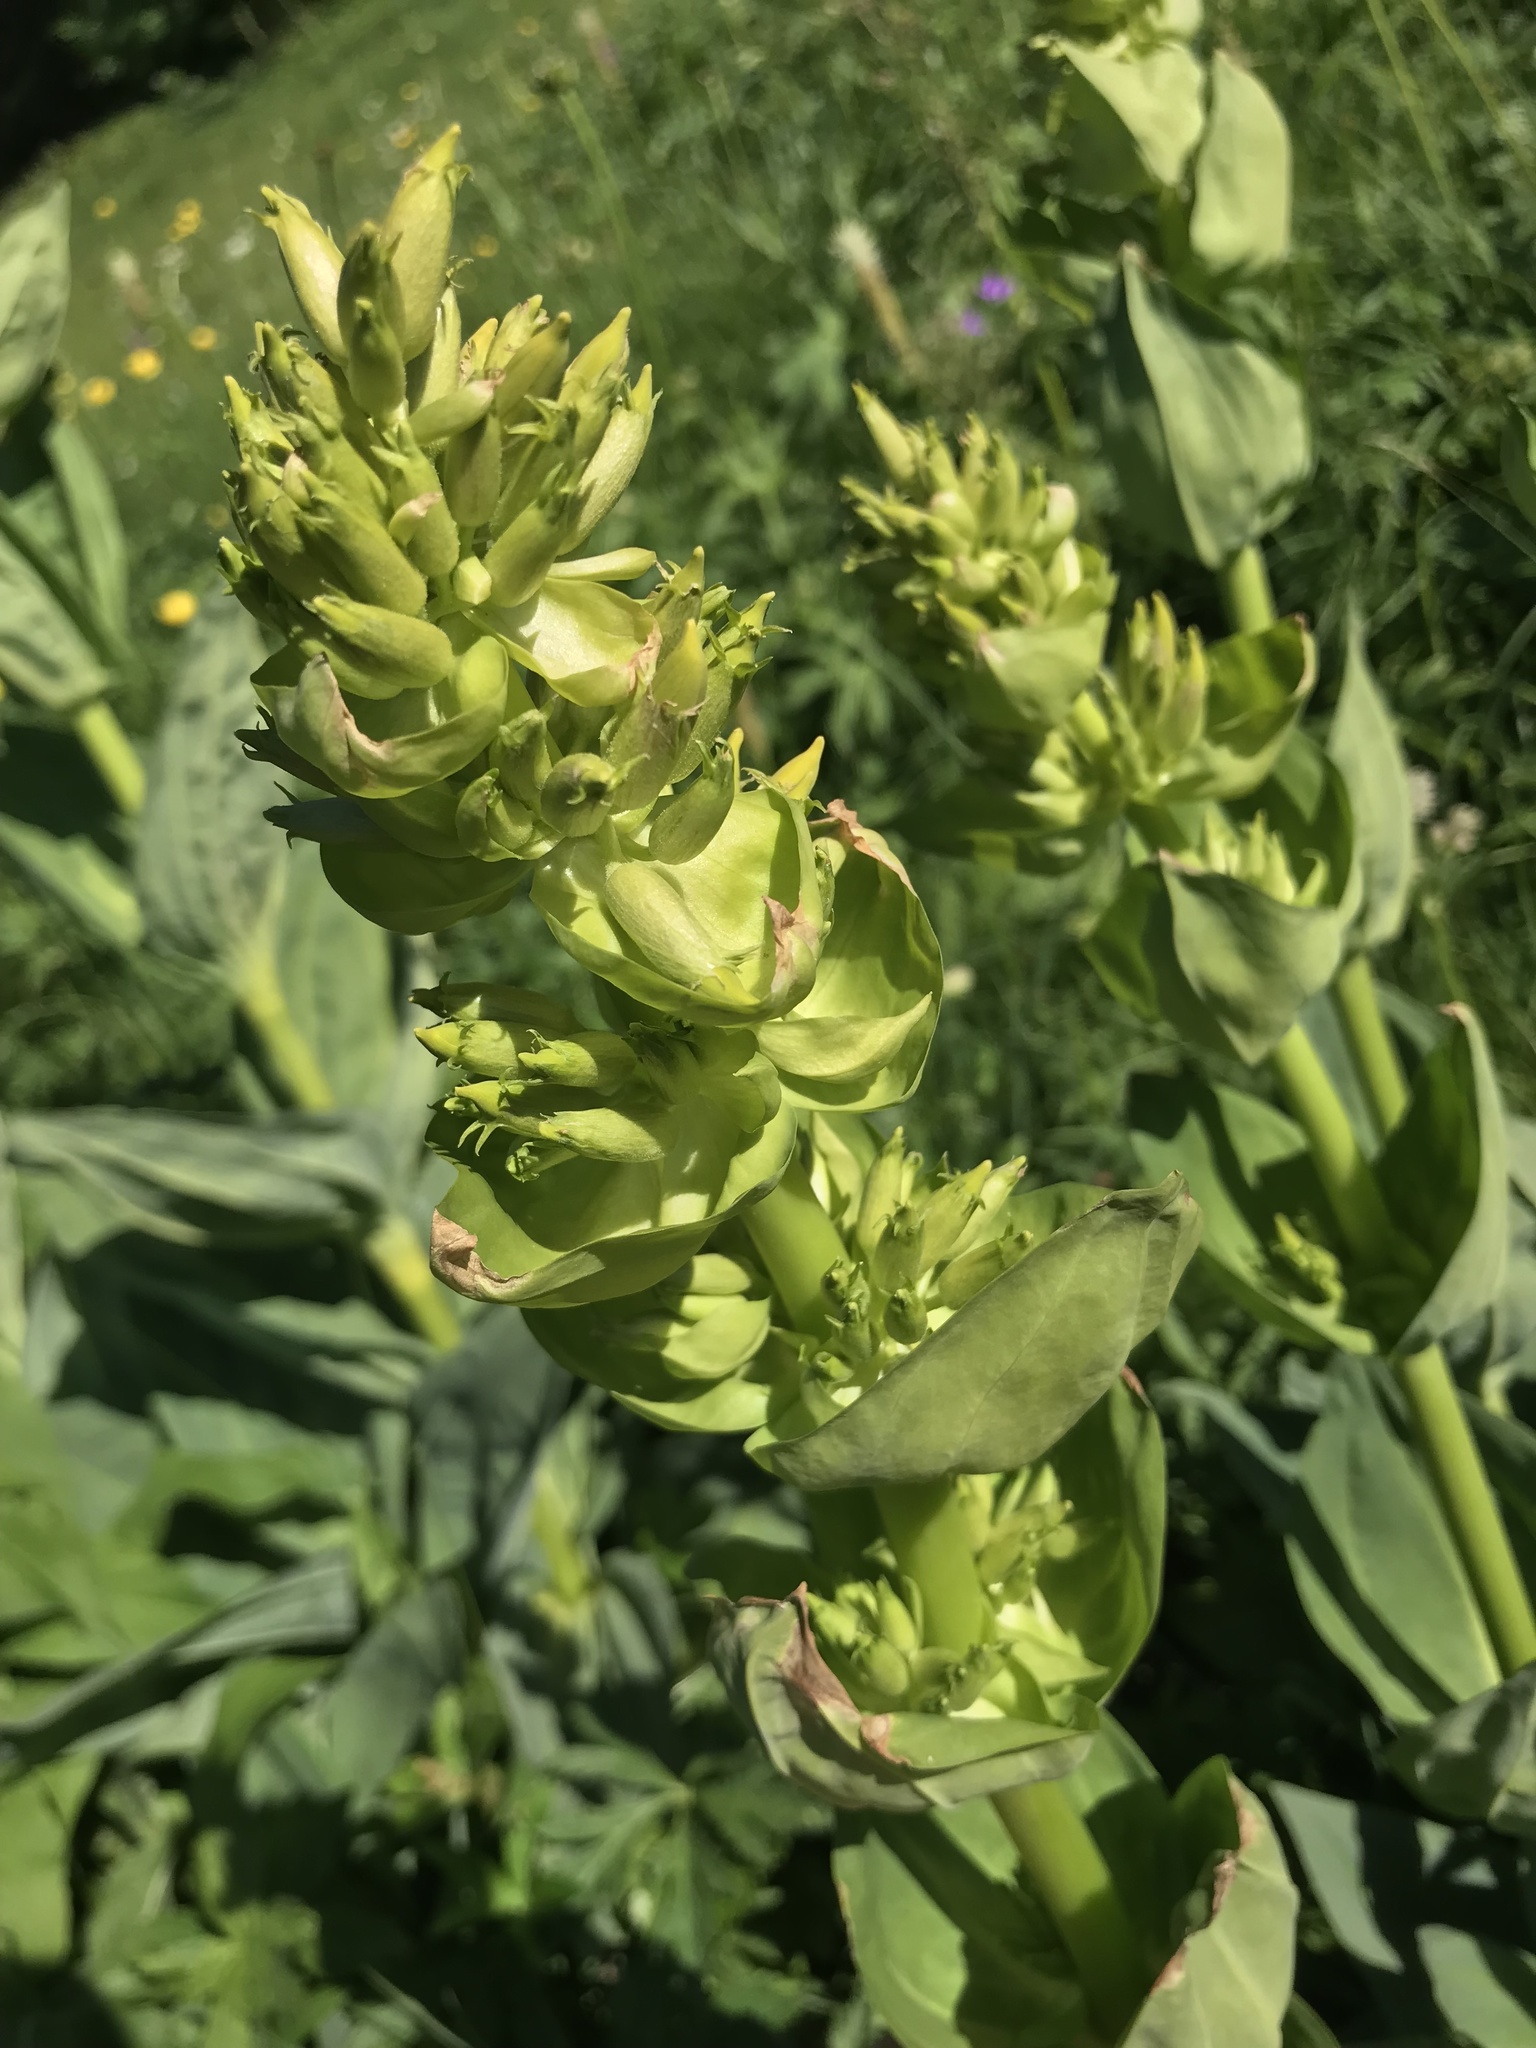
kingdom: Plantae
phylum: Tracheophyta
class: Magnoliopsida
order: Gentianales
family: Gentianaceae
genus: Gentiana
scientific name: Gentiana lutea
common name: Great yellow gentian
